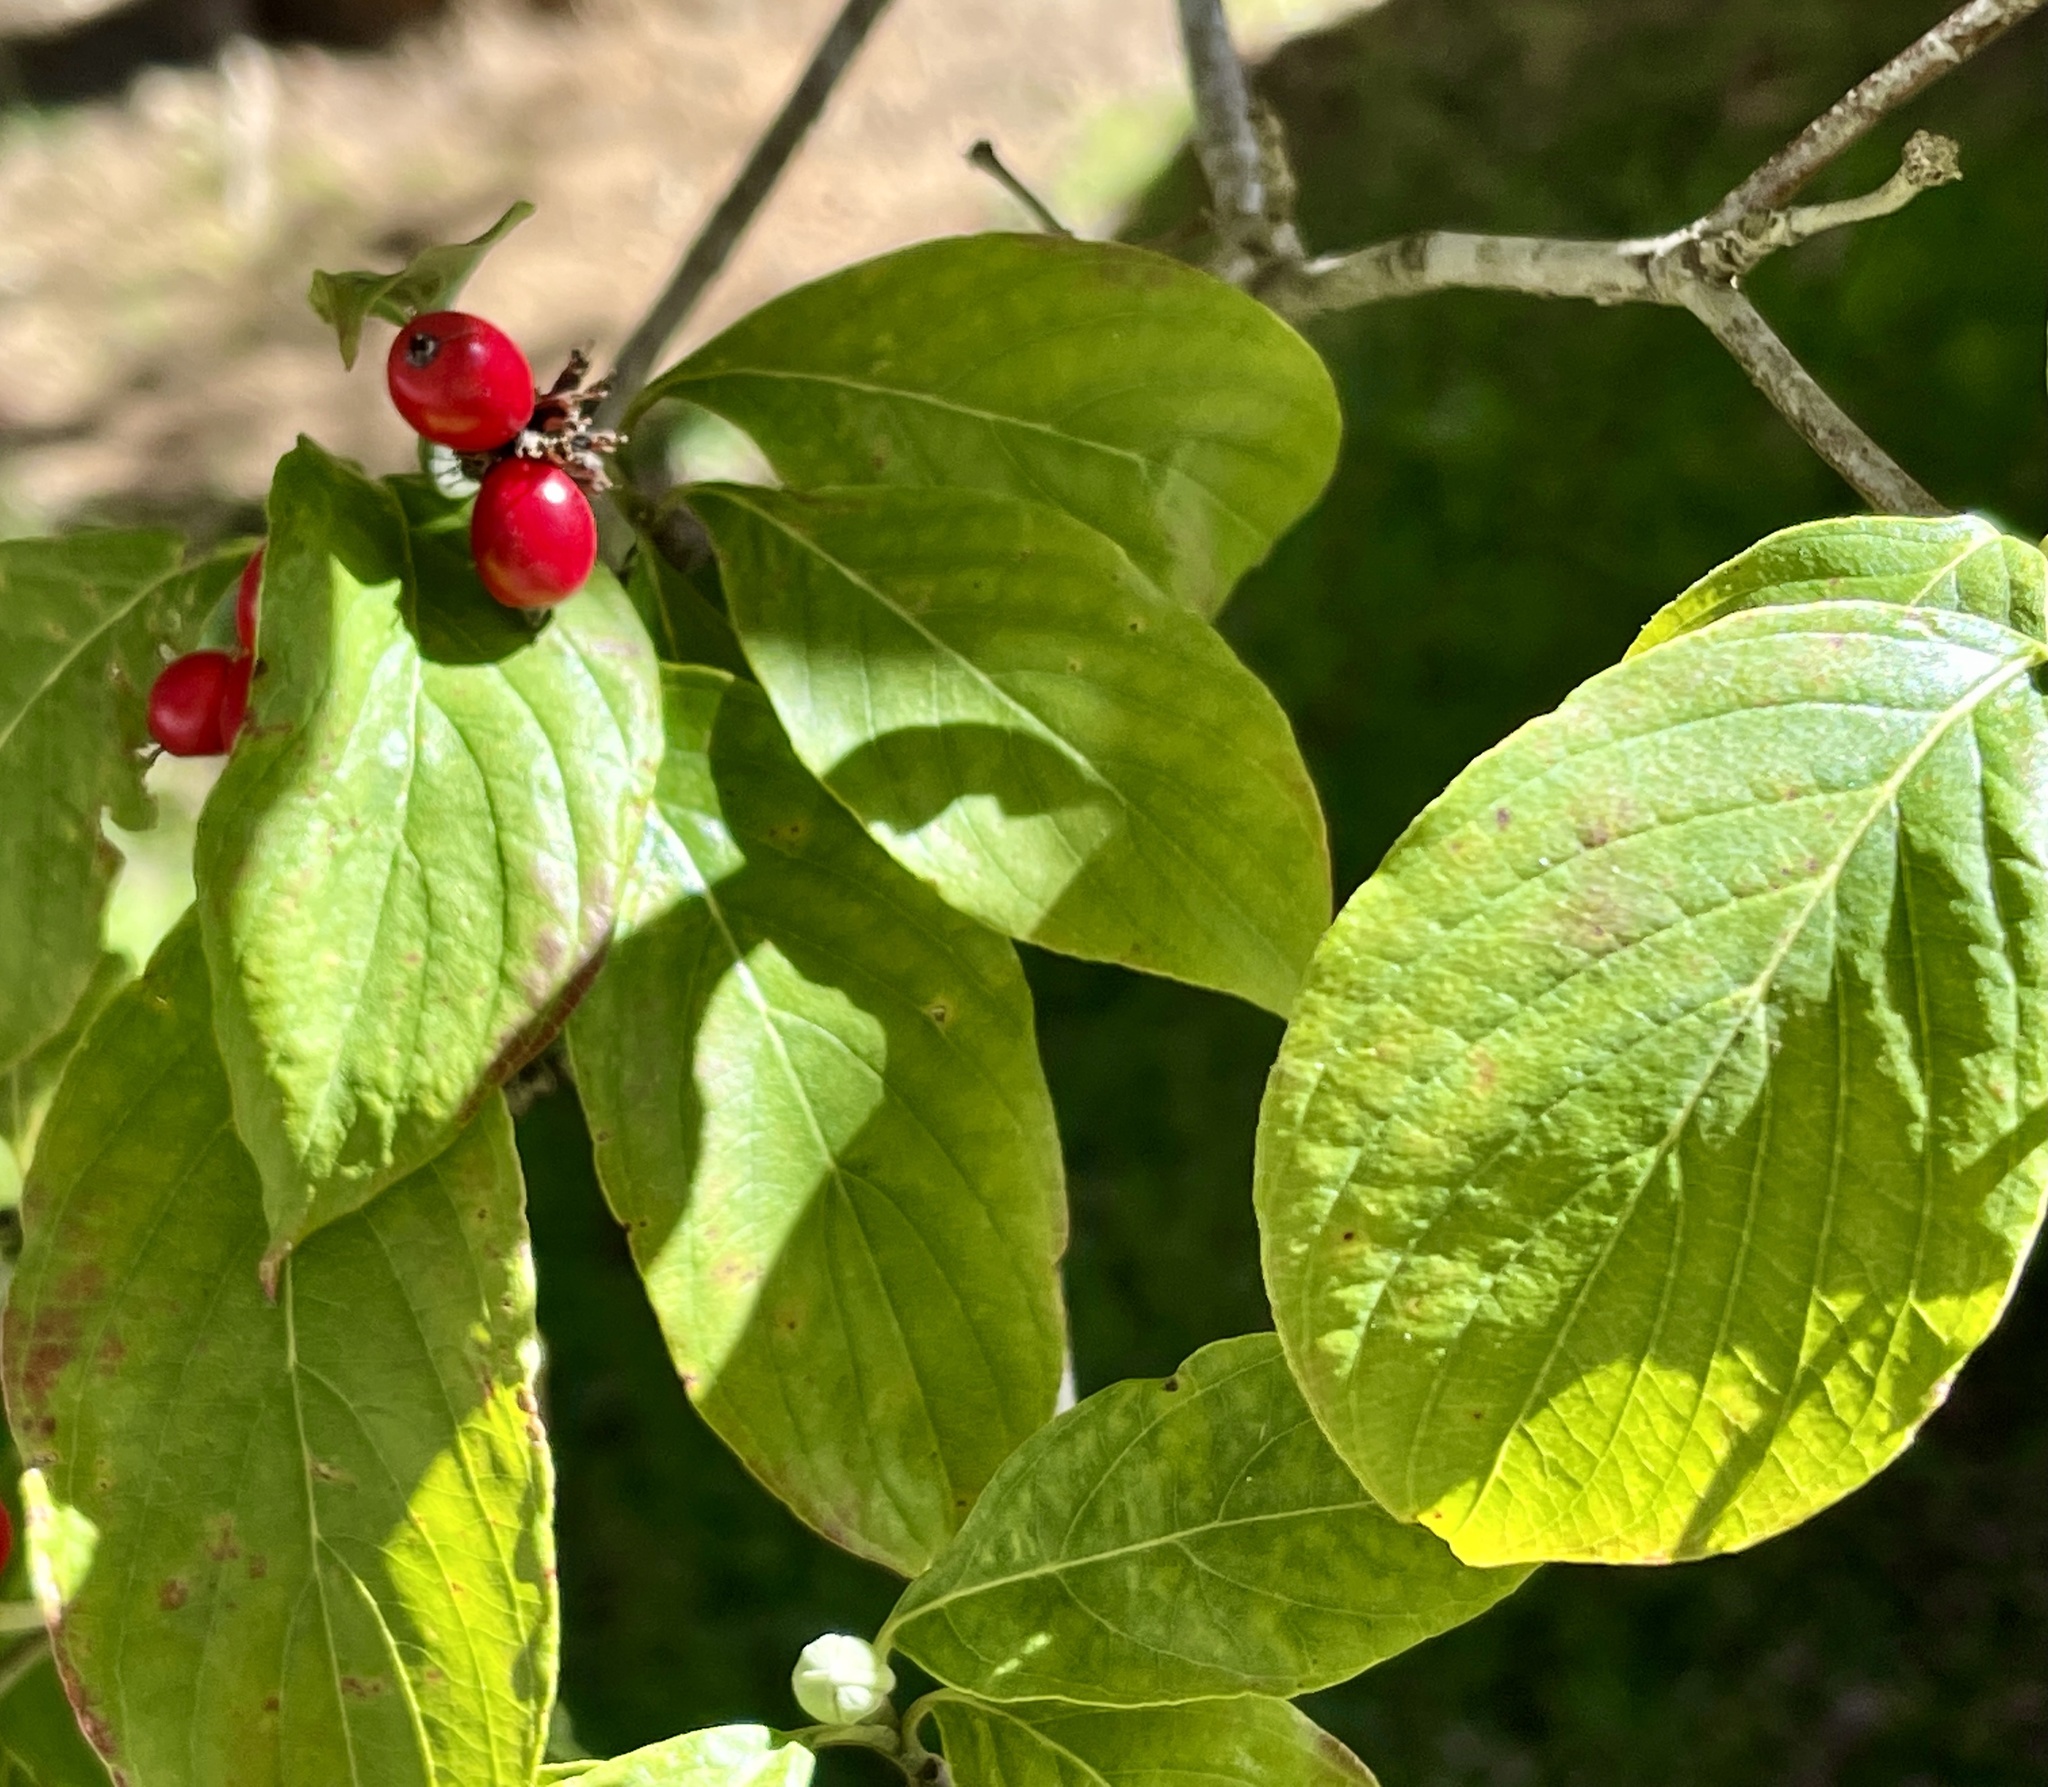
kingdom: Plantae
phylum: Tracheophyta
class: Magnoliopsida
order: Cornales
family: Cornaceae
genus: Cornus
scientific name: Cornus florida
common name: Flowering dogwood
